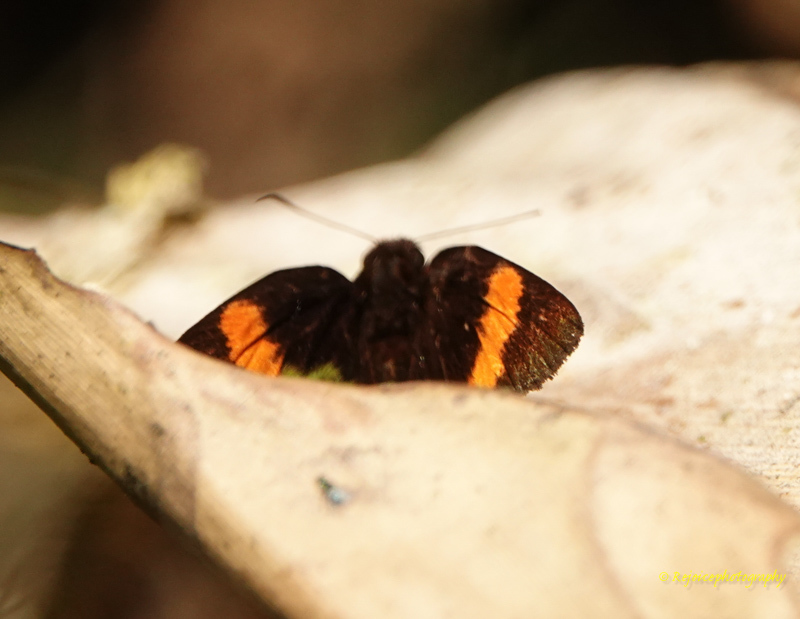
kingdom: Animalia
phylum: Arthropoda
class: Insecta
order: Lepidoptera
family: Hesperiidae
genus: Koruthaialos
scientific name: Koruthaialos sindu
